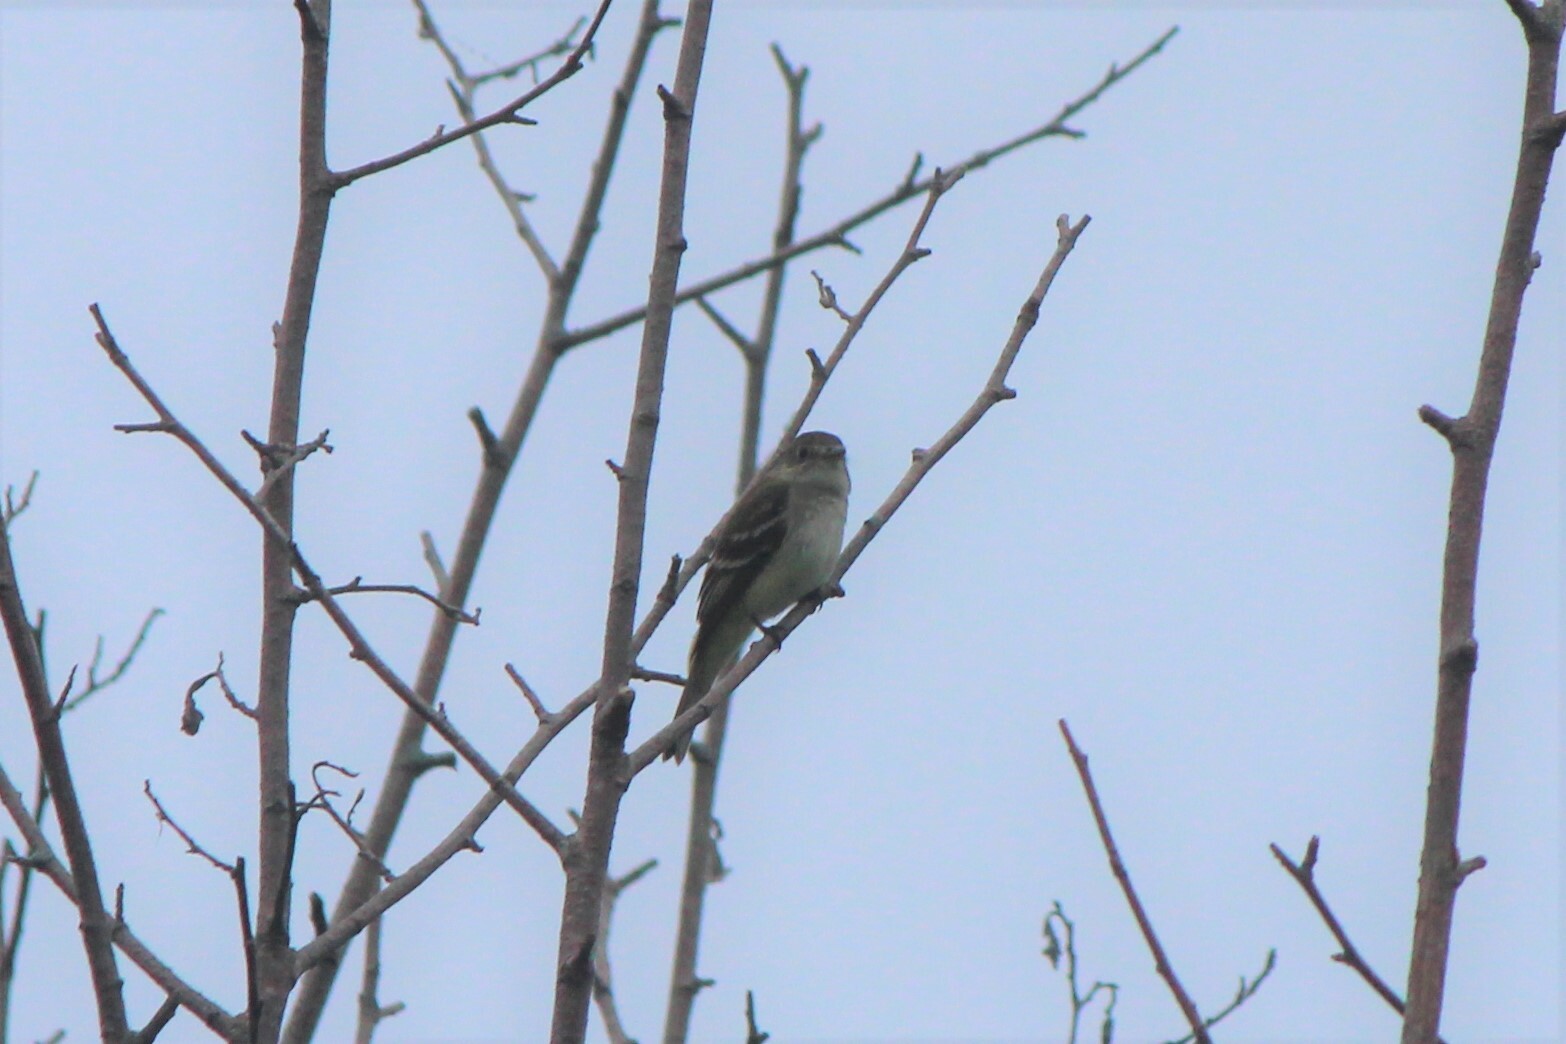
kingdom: Animalia
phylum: Chordata
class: Aves
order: Passeriformes
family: Tyrannidae
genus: Empidonax
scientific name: Empidonax alnorum
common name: Alder flycatcher
